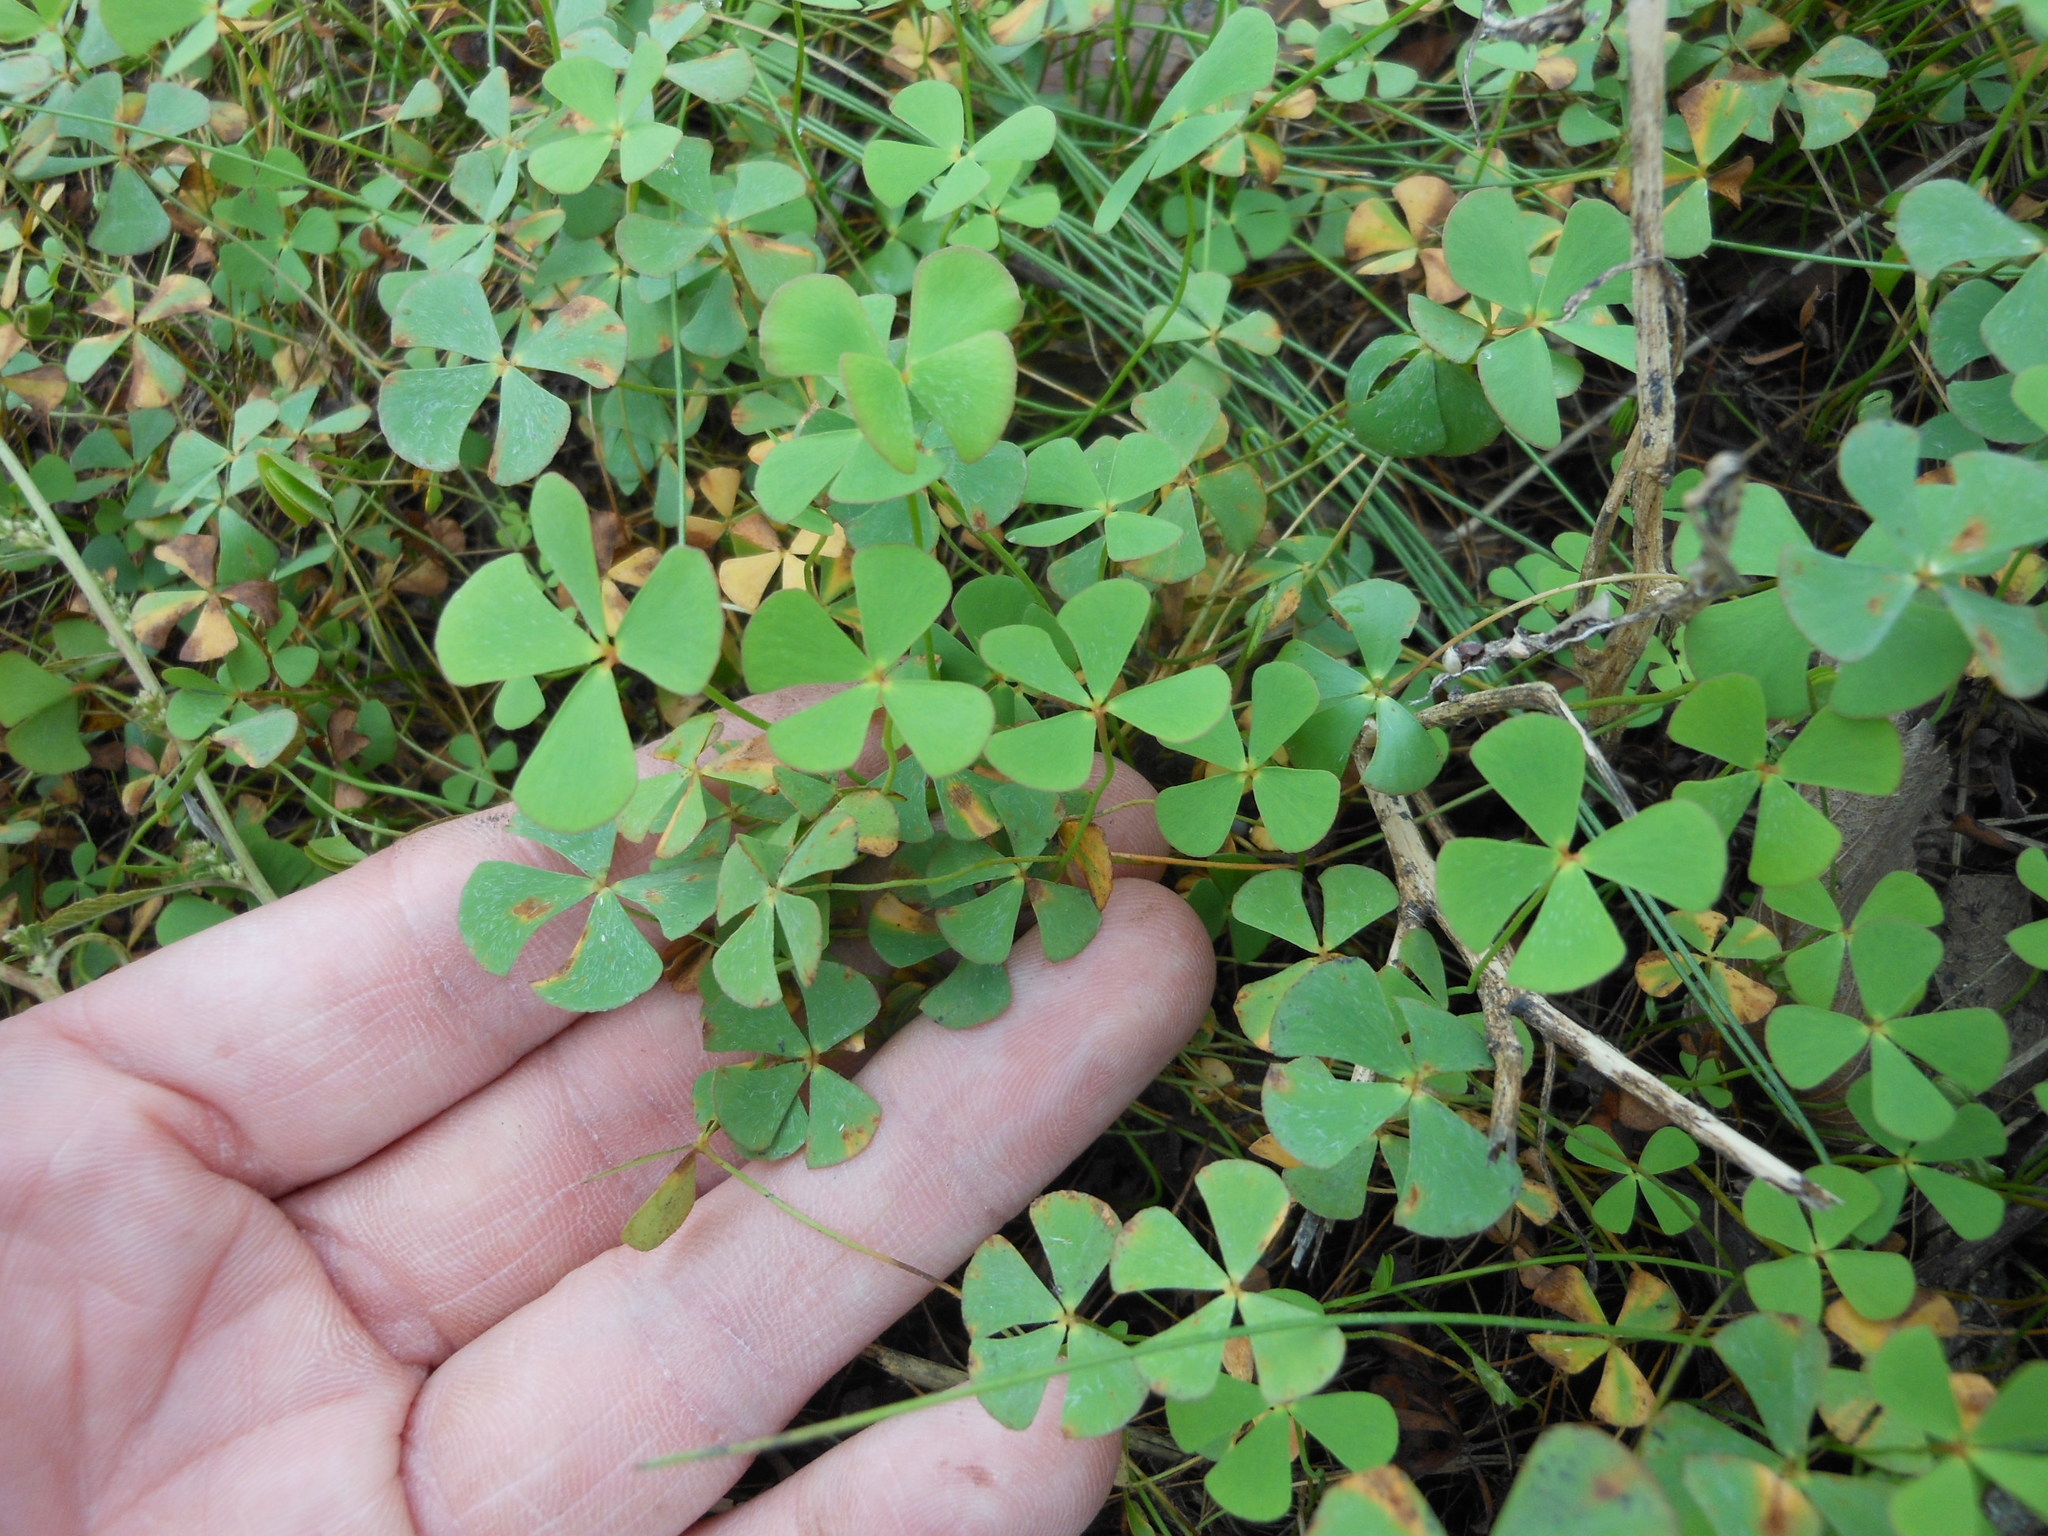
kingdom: Plantae
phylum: Tracheophyta
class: Polypodiopsida
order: Salviniales
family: Marsileaceae
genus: Marsilea
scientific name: Marsilea vestita
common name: Hooked-pepperwort
